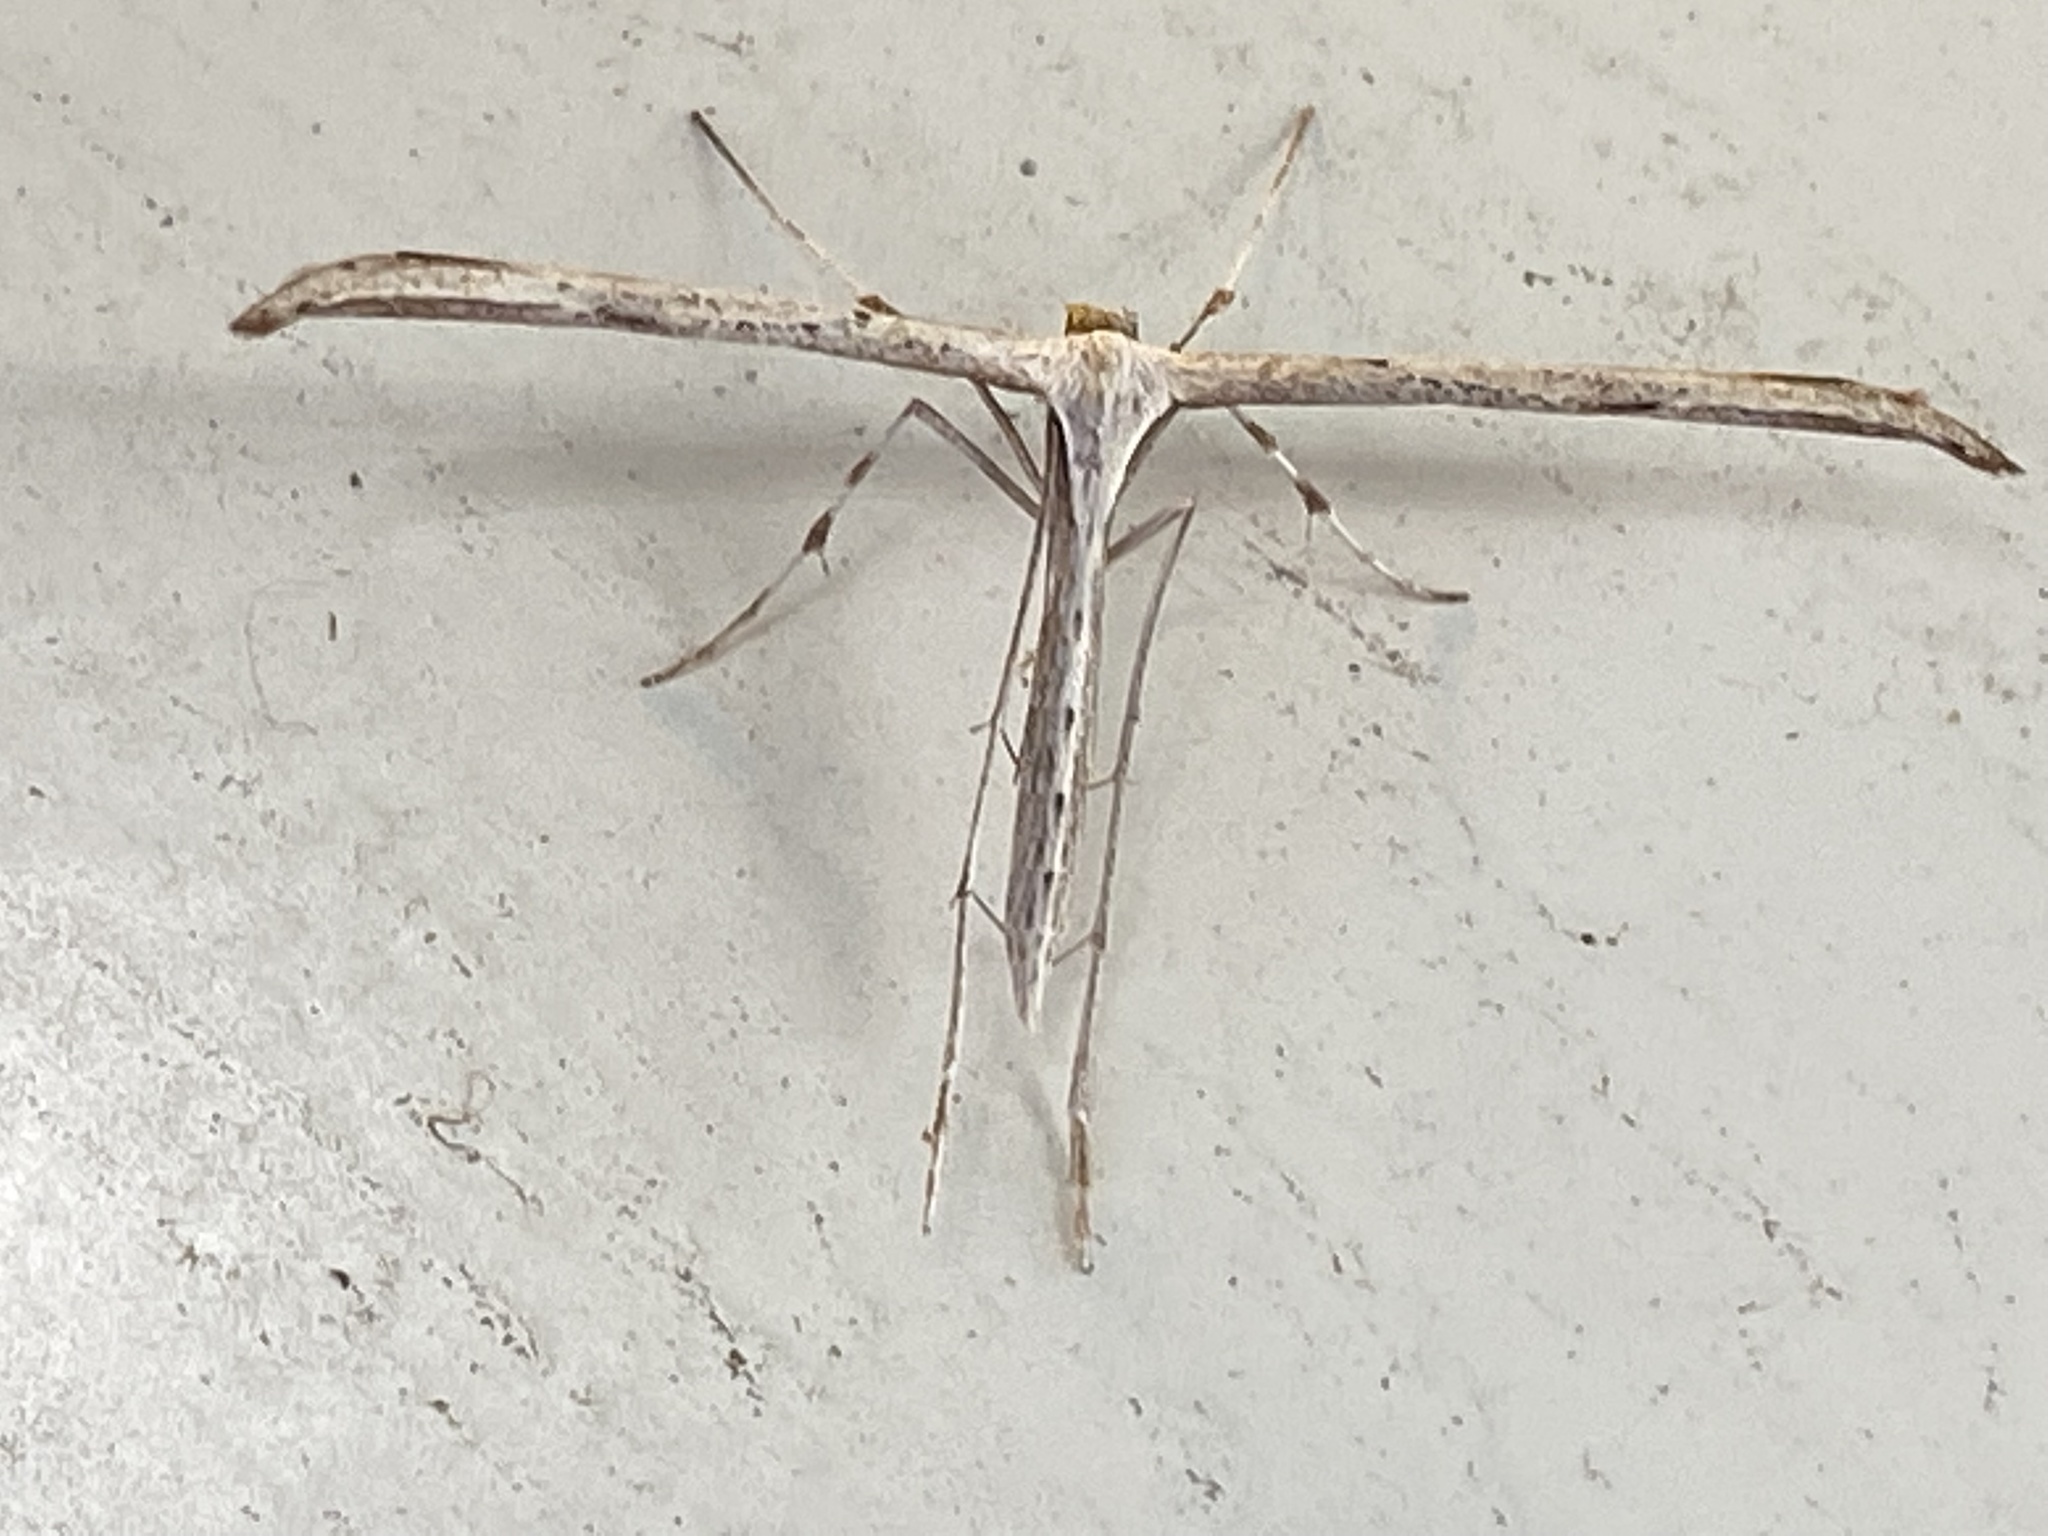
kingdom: Animalia
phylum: Arthropoda
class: Insecta
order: Lepidoptera
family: Pterophoridae
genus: Emmelina
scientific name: Emmelina monodactyla
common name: Common plume
